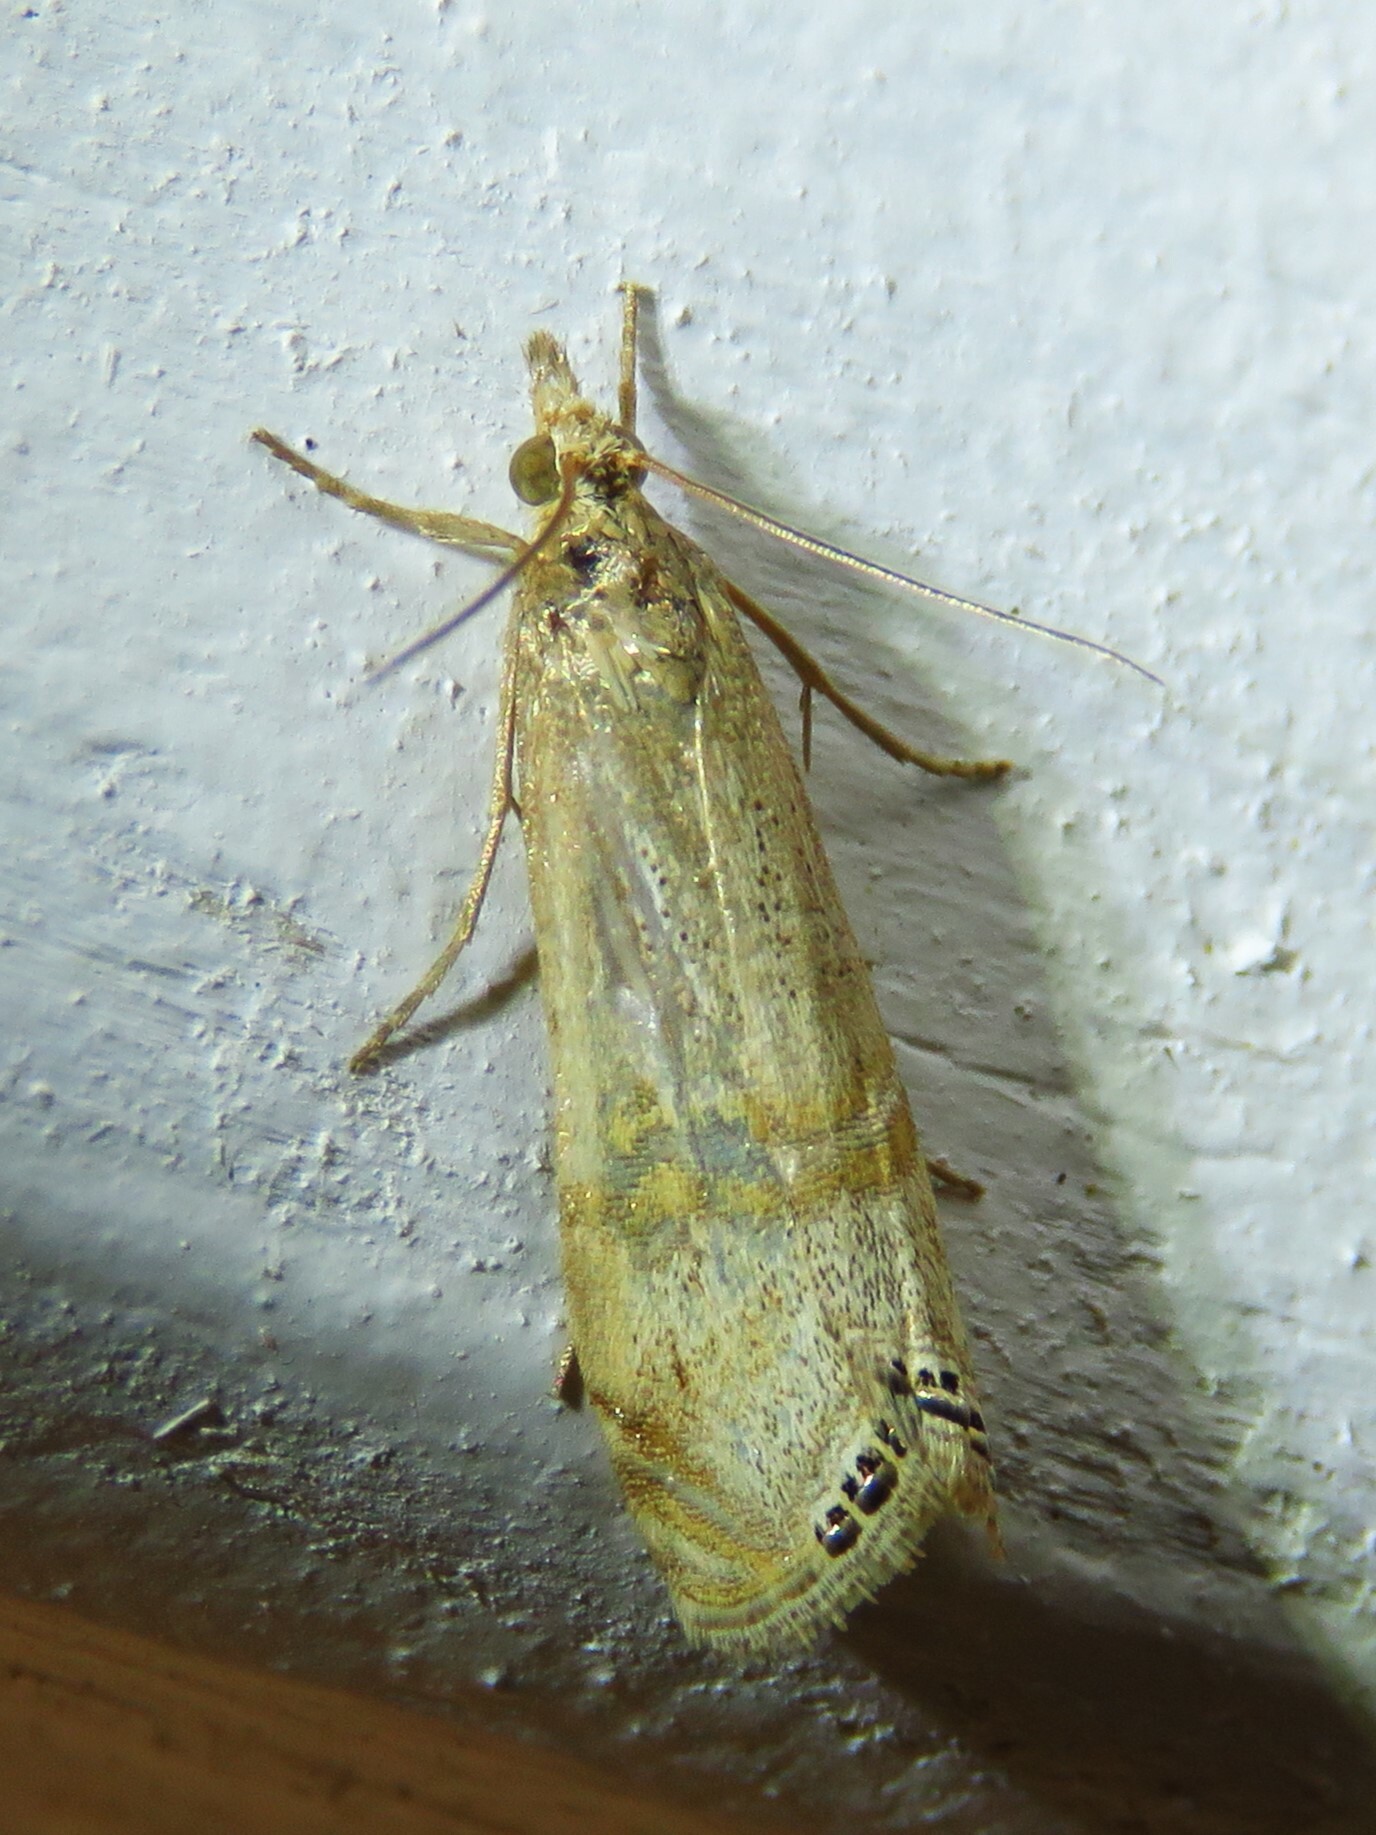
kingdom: Animalia
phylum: Arthropoda
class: Insecta
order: Lepidoptera
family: Crambidae
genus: Euchromius
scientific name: Euchromius ocellea
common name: Necklace veneer moth
